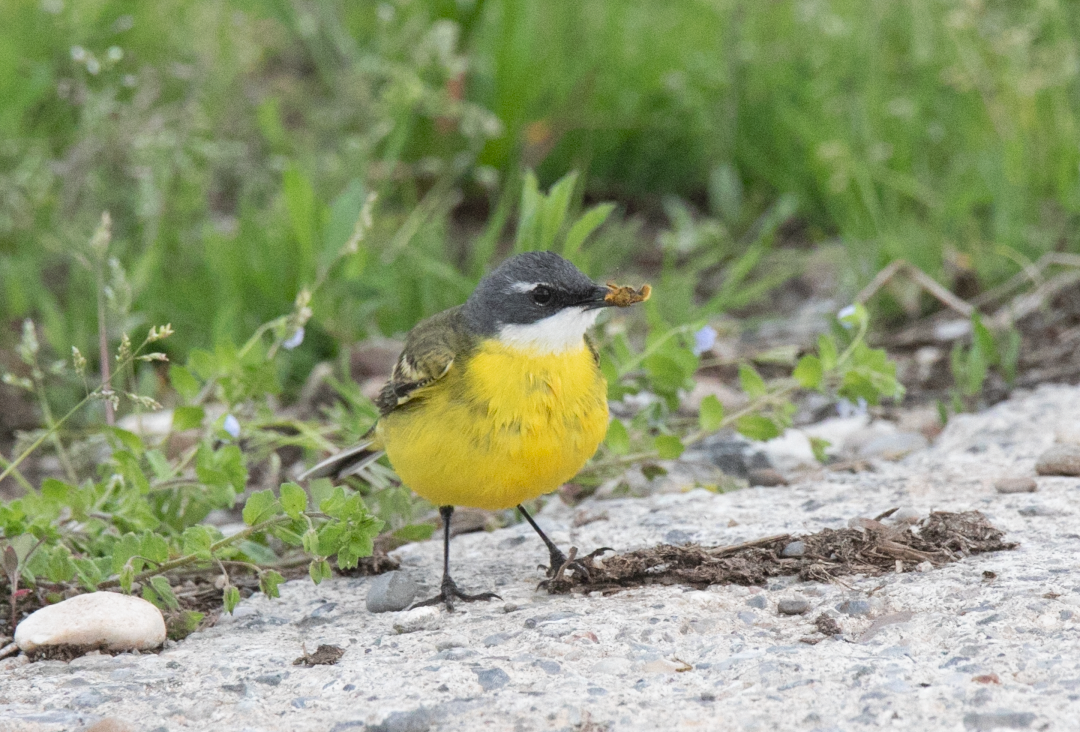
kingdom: Animalia
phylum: Chordata
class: Aves
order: Passeriformes
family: Motacillidae
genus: Motacilla
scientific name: Motacilla flava
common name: Western yellow wagtail
